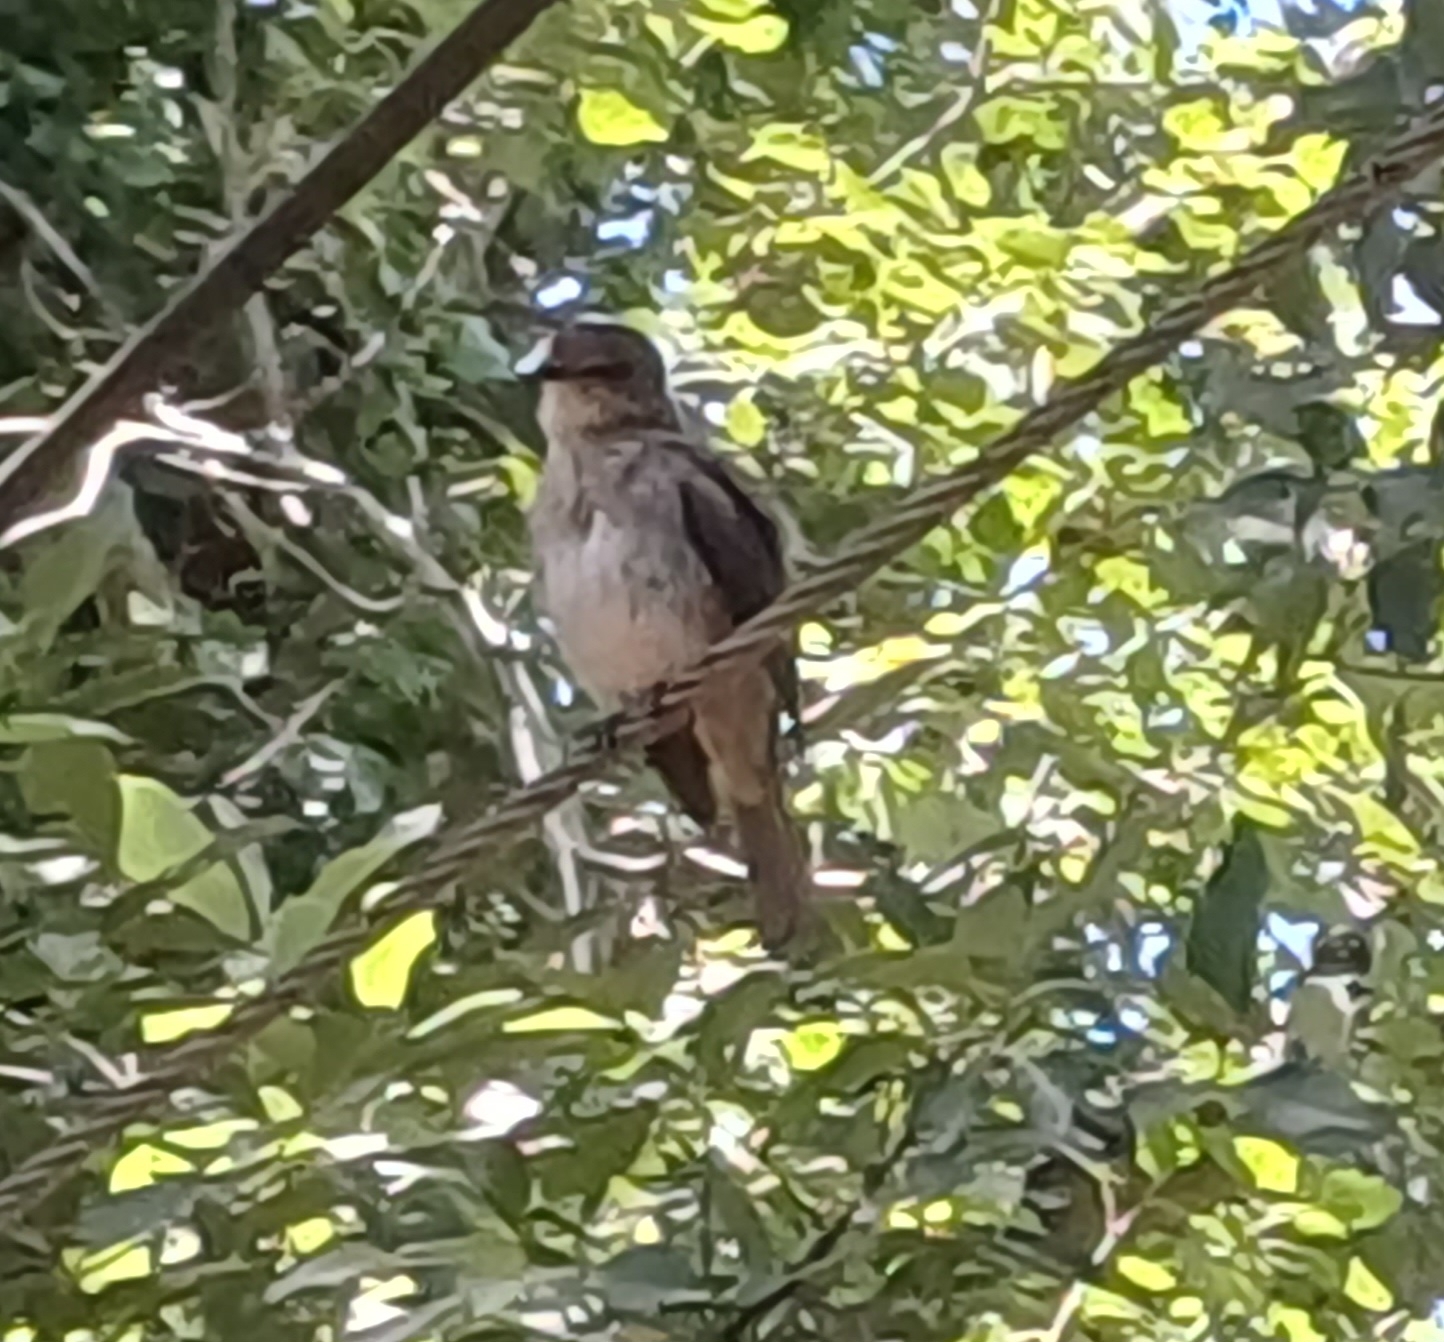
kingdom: Animalia
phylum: Chordata
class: Aves
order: Passeriformes
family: Muscicapidae
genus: Muscicapa
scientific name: Muscicapa adusta
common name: African dusky flycatcher
